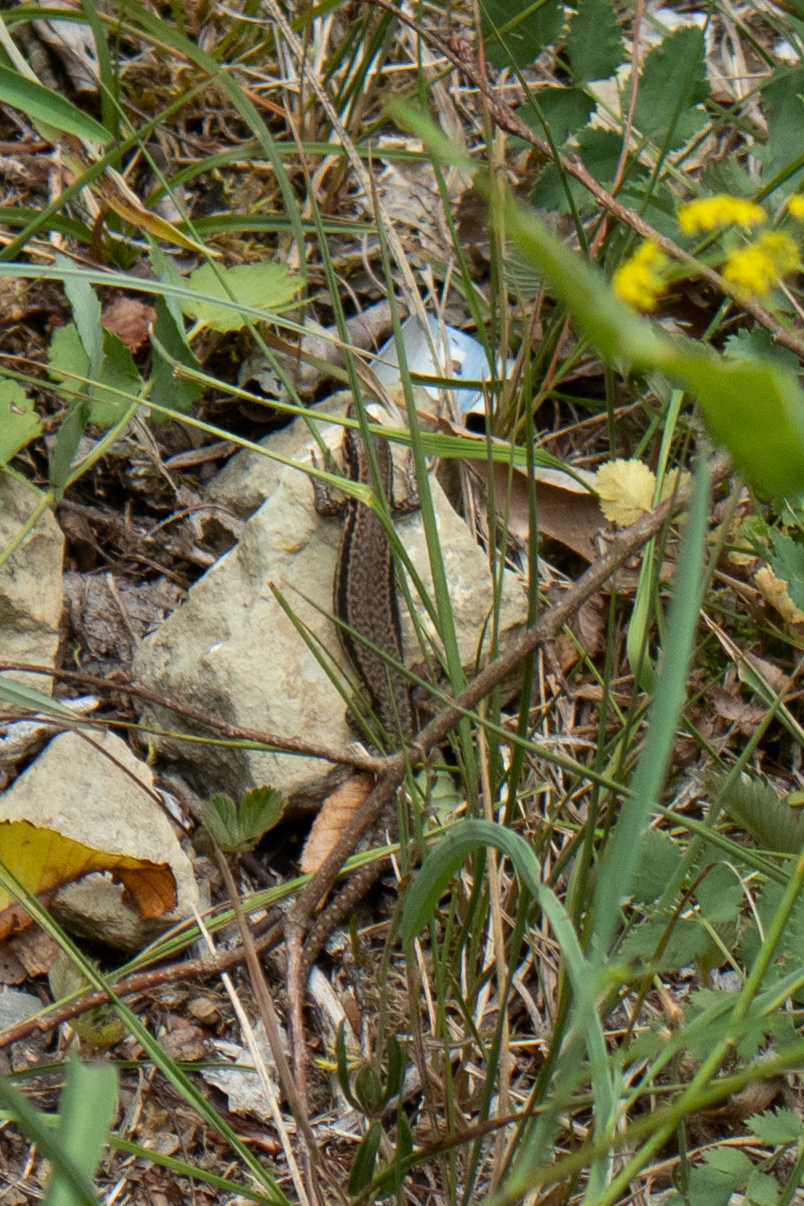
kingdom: Animalia
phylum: Chordata
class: Squamata
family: Lacertidae
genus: Podarcis
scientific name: Podarcis muralis
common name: Common wall lizard
